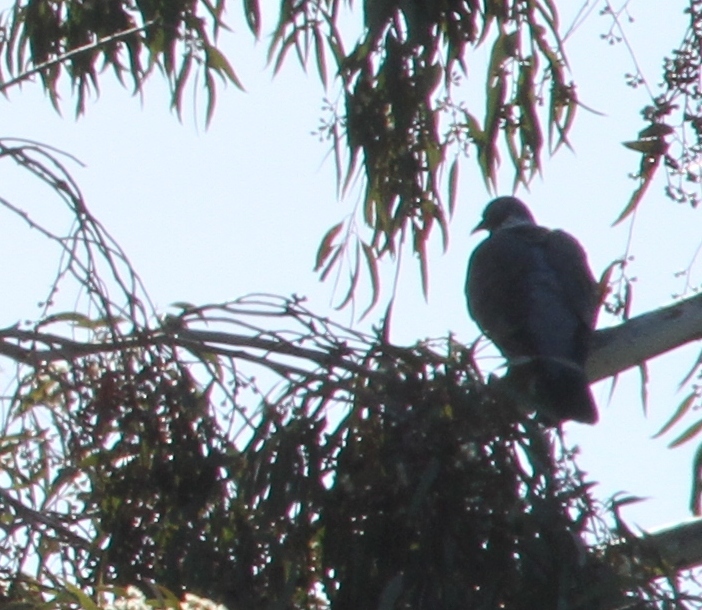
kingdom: Animalia
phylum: Chordata
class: Aves
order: Columbiformes
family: Columbidae
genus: Columba
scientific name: Columba palumbus
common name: Common wood pigeon
